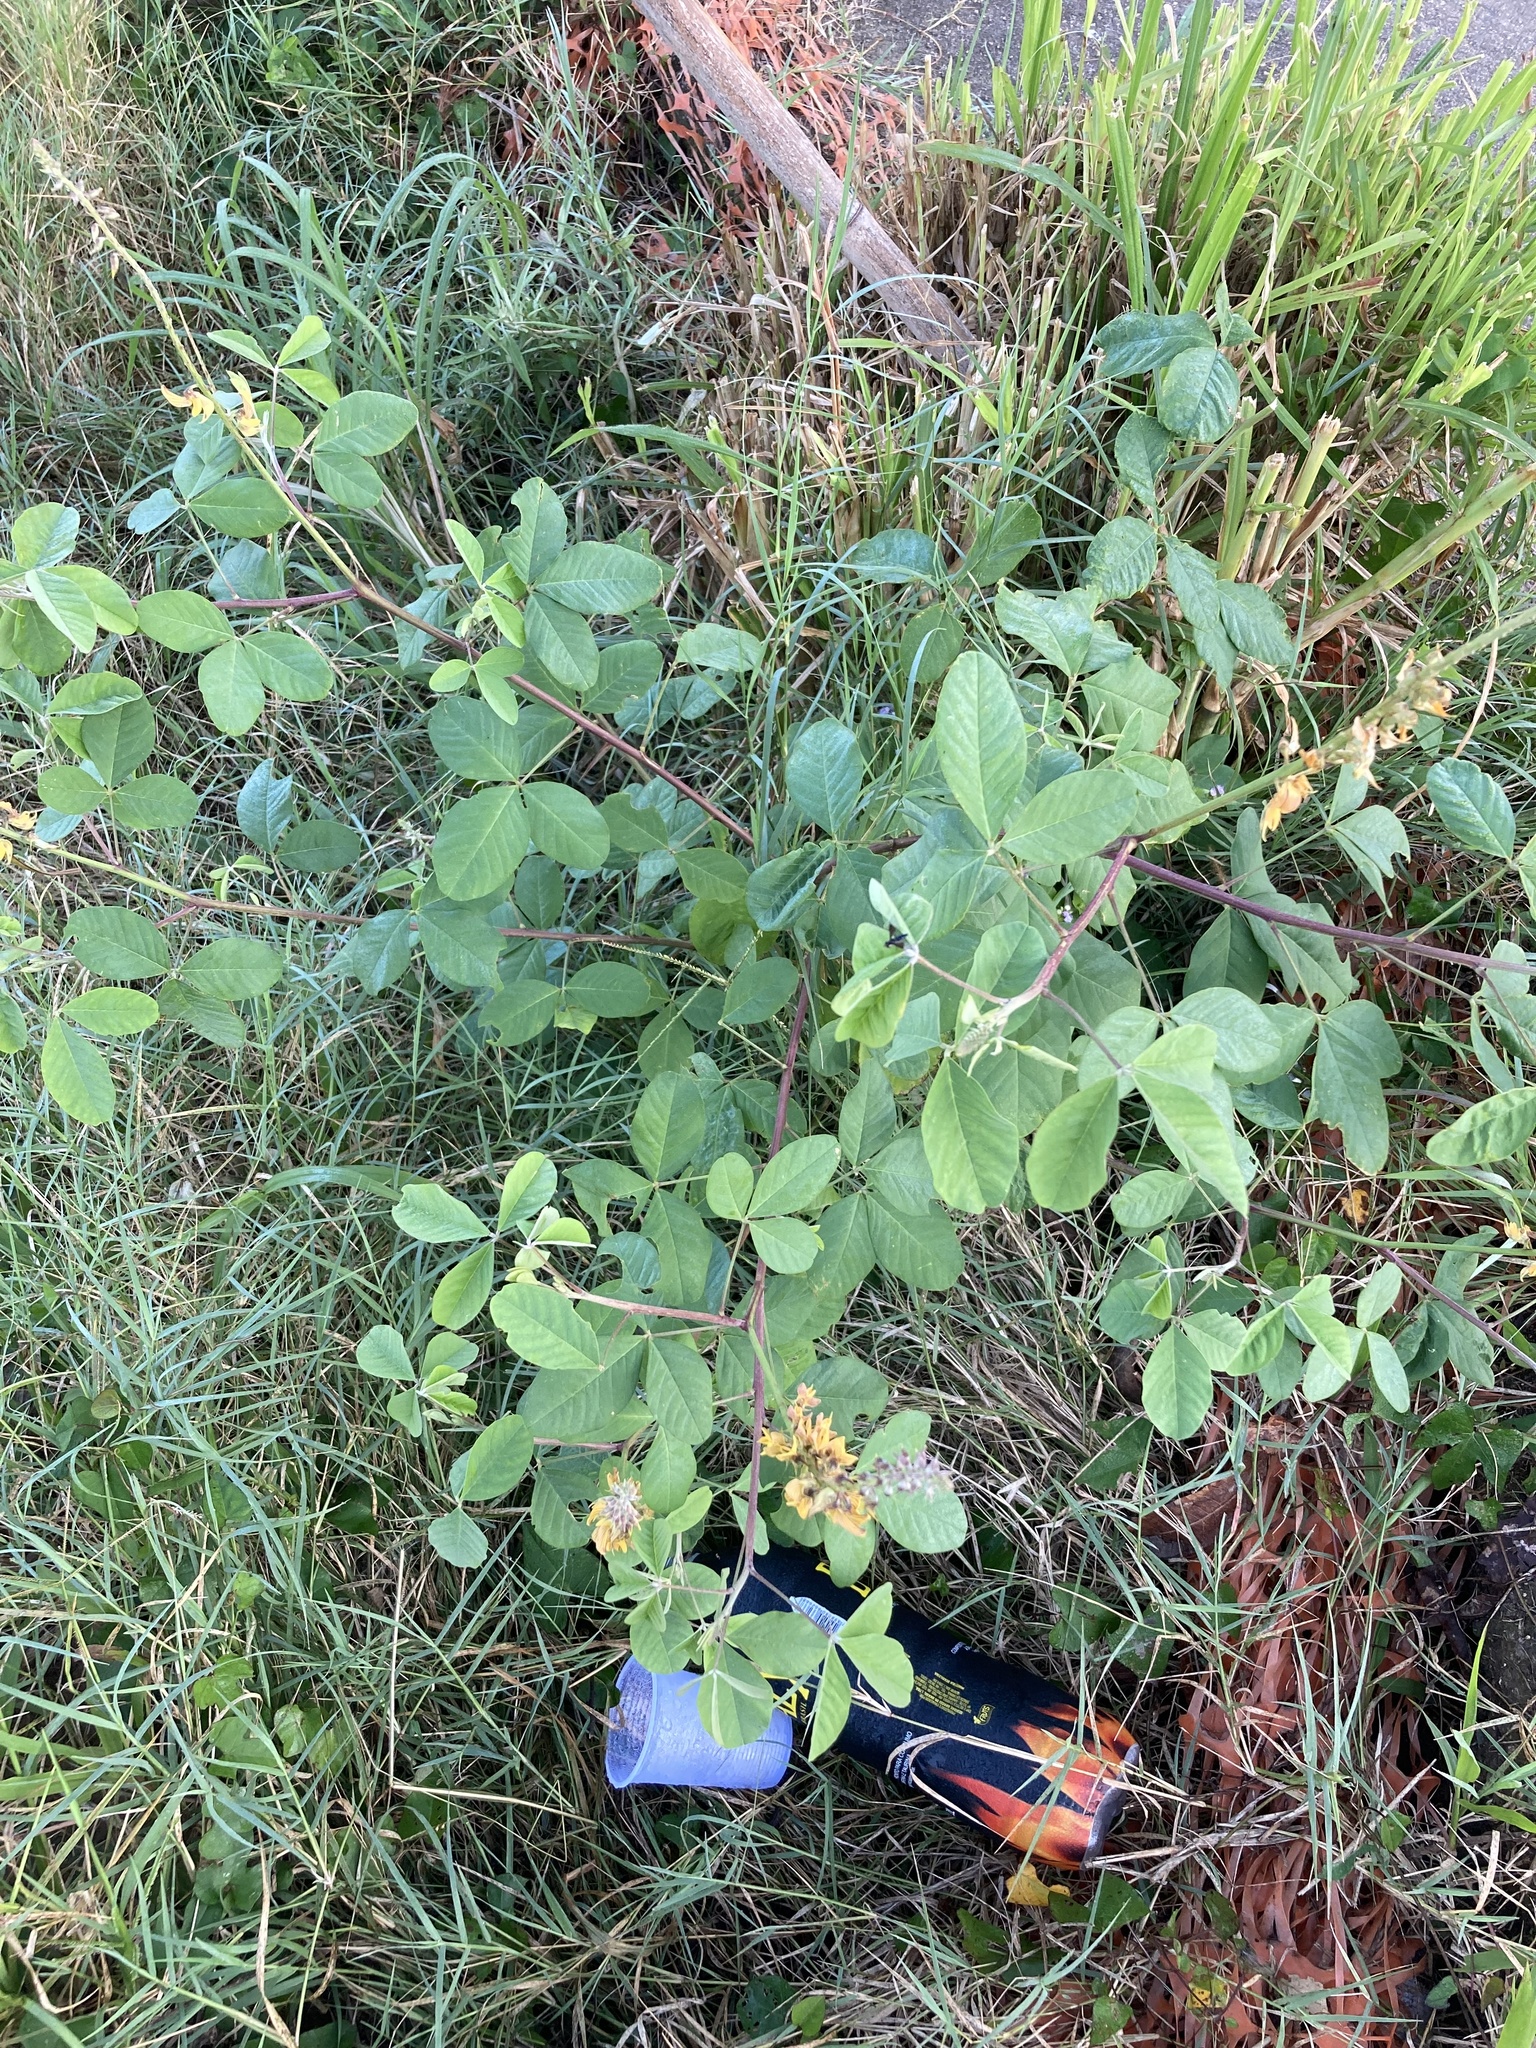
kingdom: Plantae
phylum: Tracheophyta
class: Magnoliopsida
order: Fabales
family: Fabaceae
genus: Crotalaria
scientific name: Crotalaria pallida
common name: Smooth rattlebox
